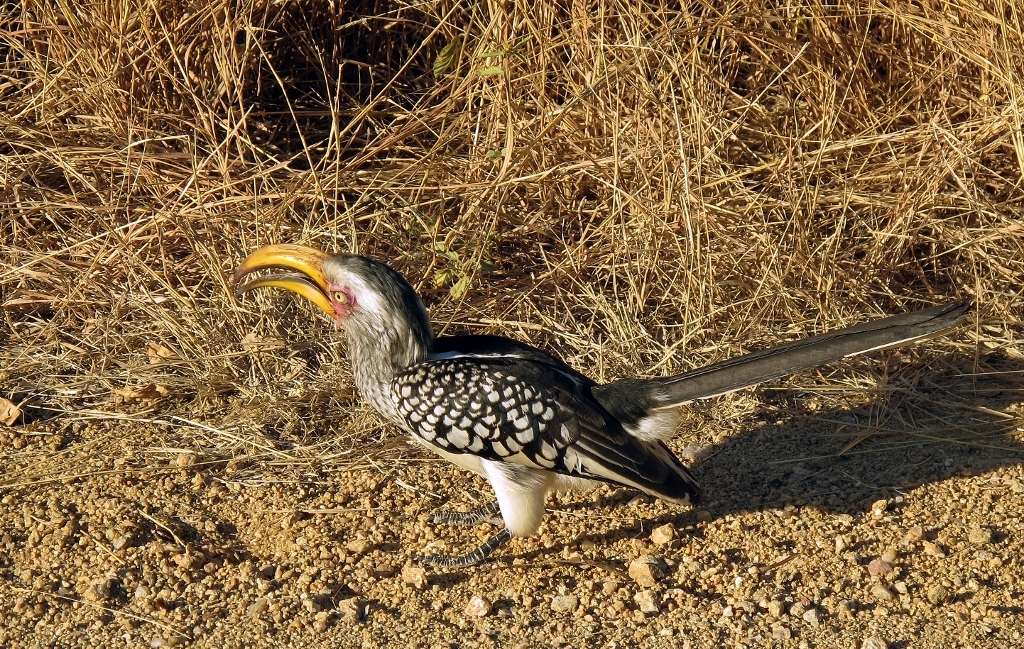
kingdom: Animalia
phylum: Chordata
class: Aves
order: Bucerotiformes
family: Bucerotidae
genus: Tockus
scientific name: Tockus leucomelas
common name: Southern yellow-billed hornbill
